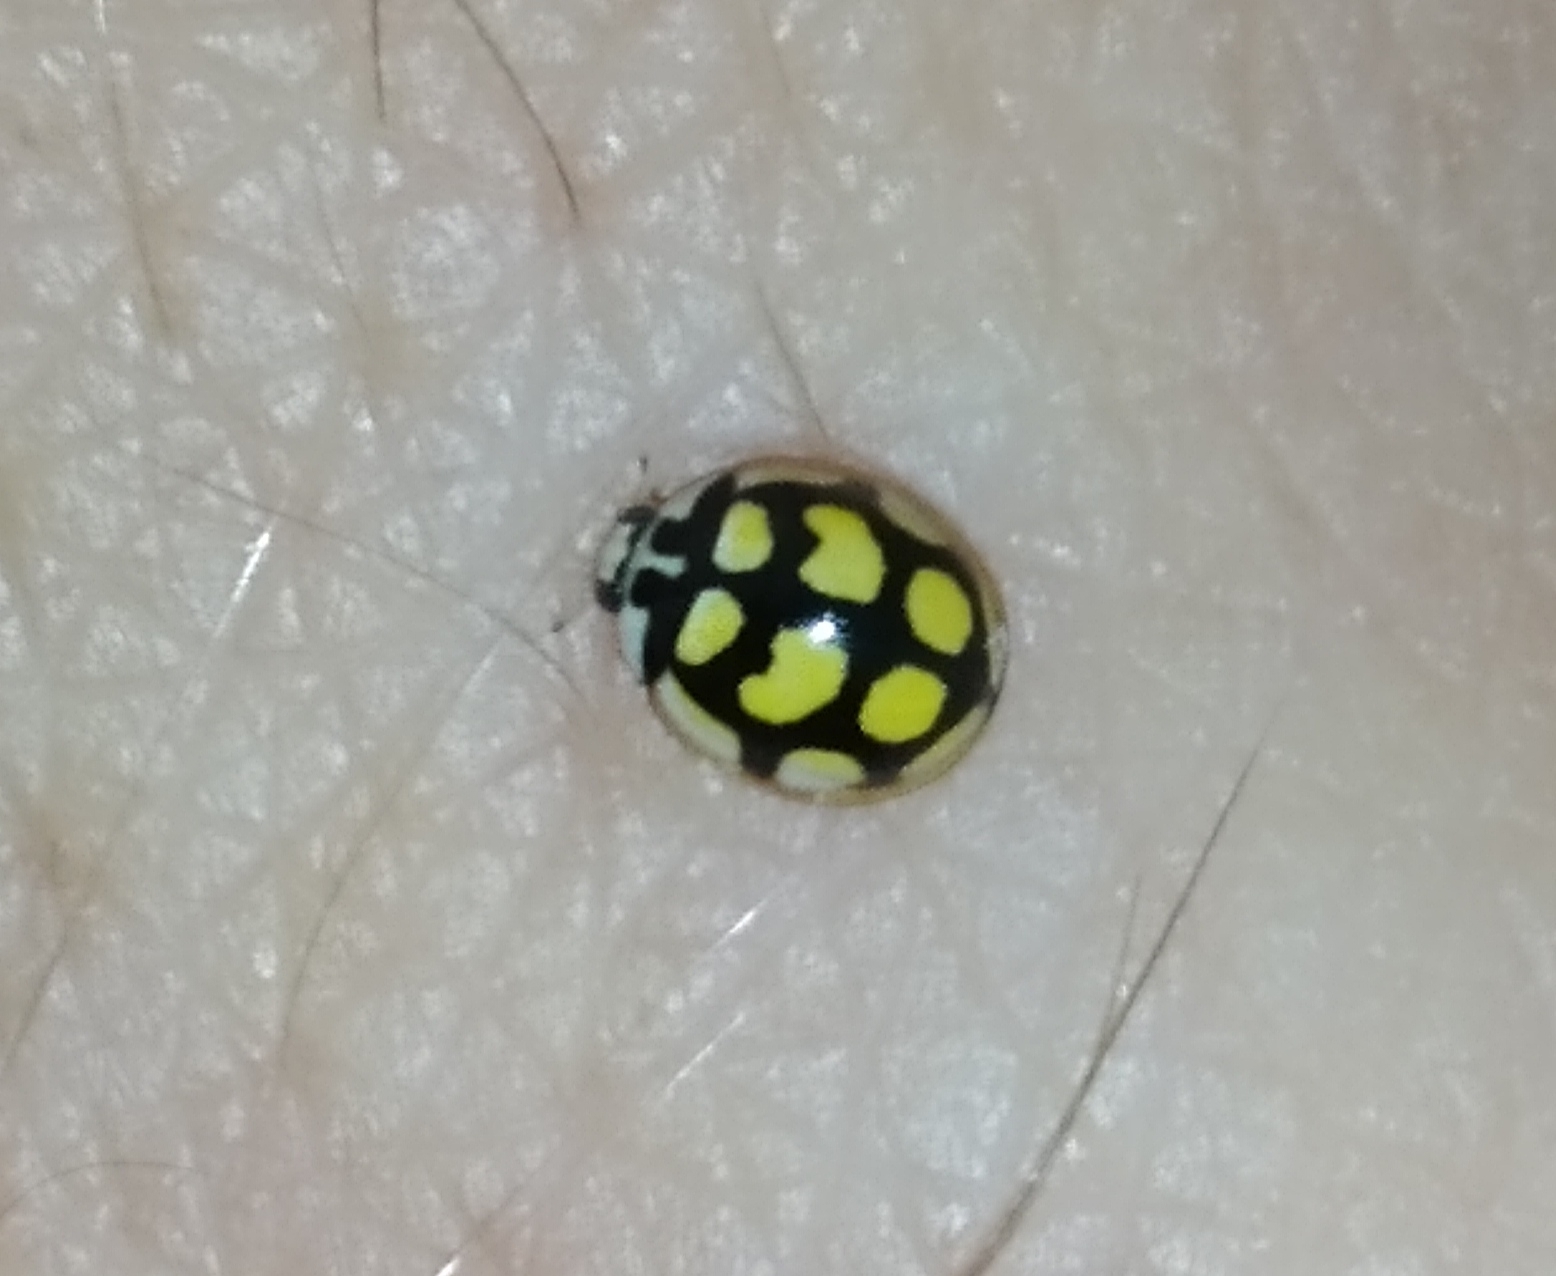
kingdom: Animalia
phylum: Arthropoda
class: Insecta
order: Coleoptera
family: Coccinellidae
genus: Oenopia
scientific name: Oenopia lyncea
